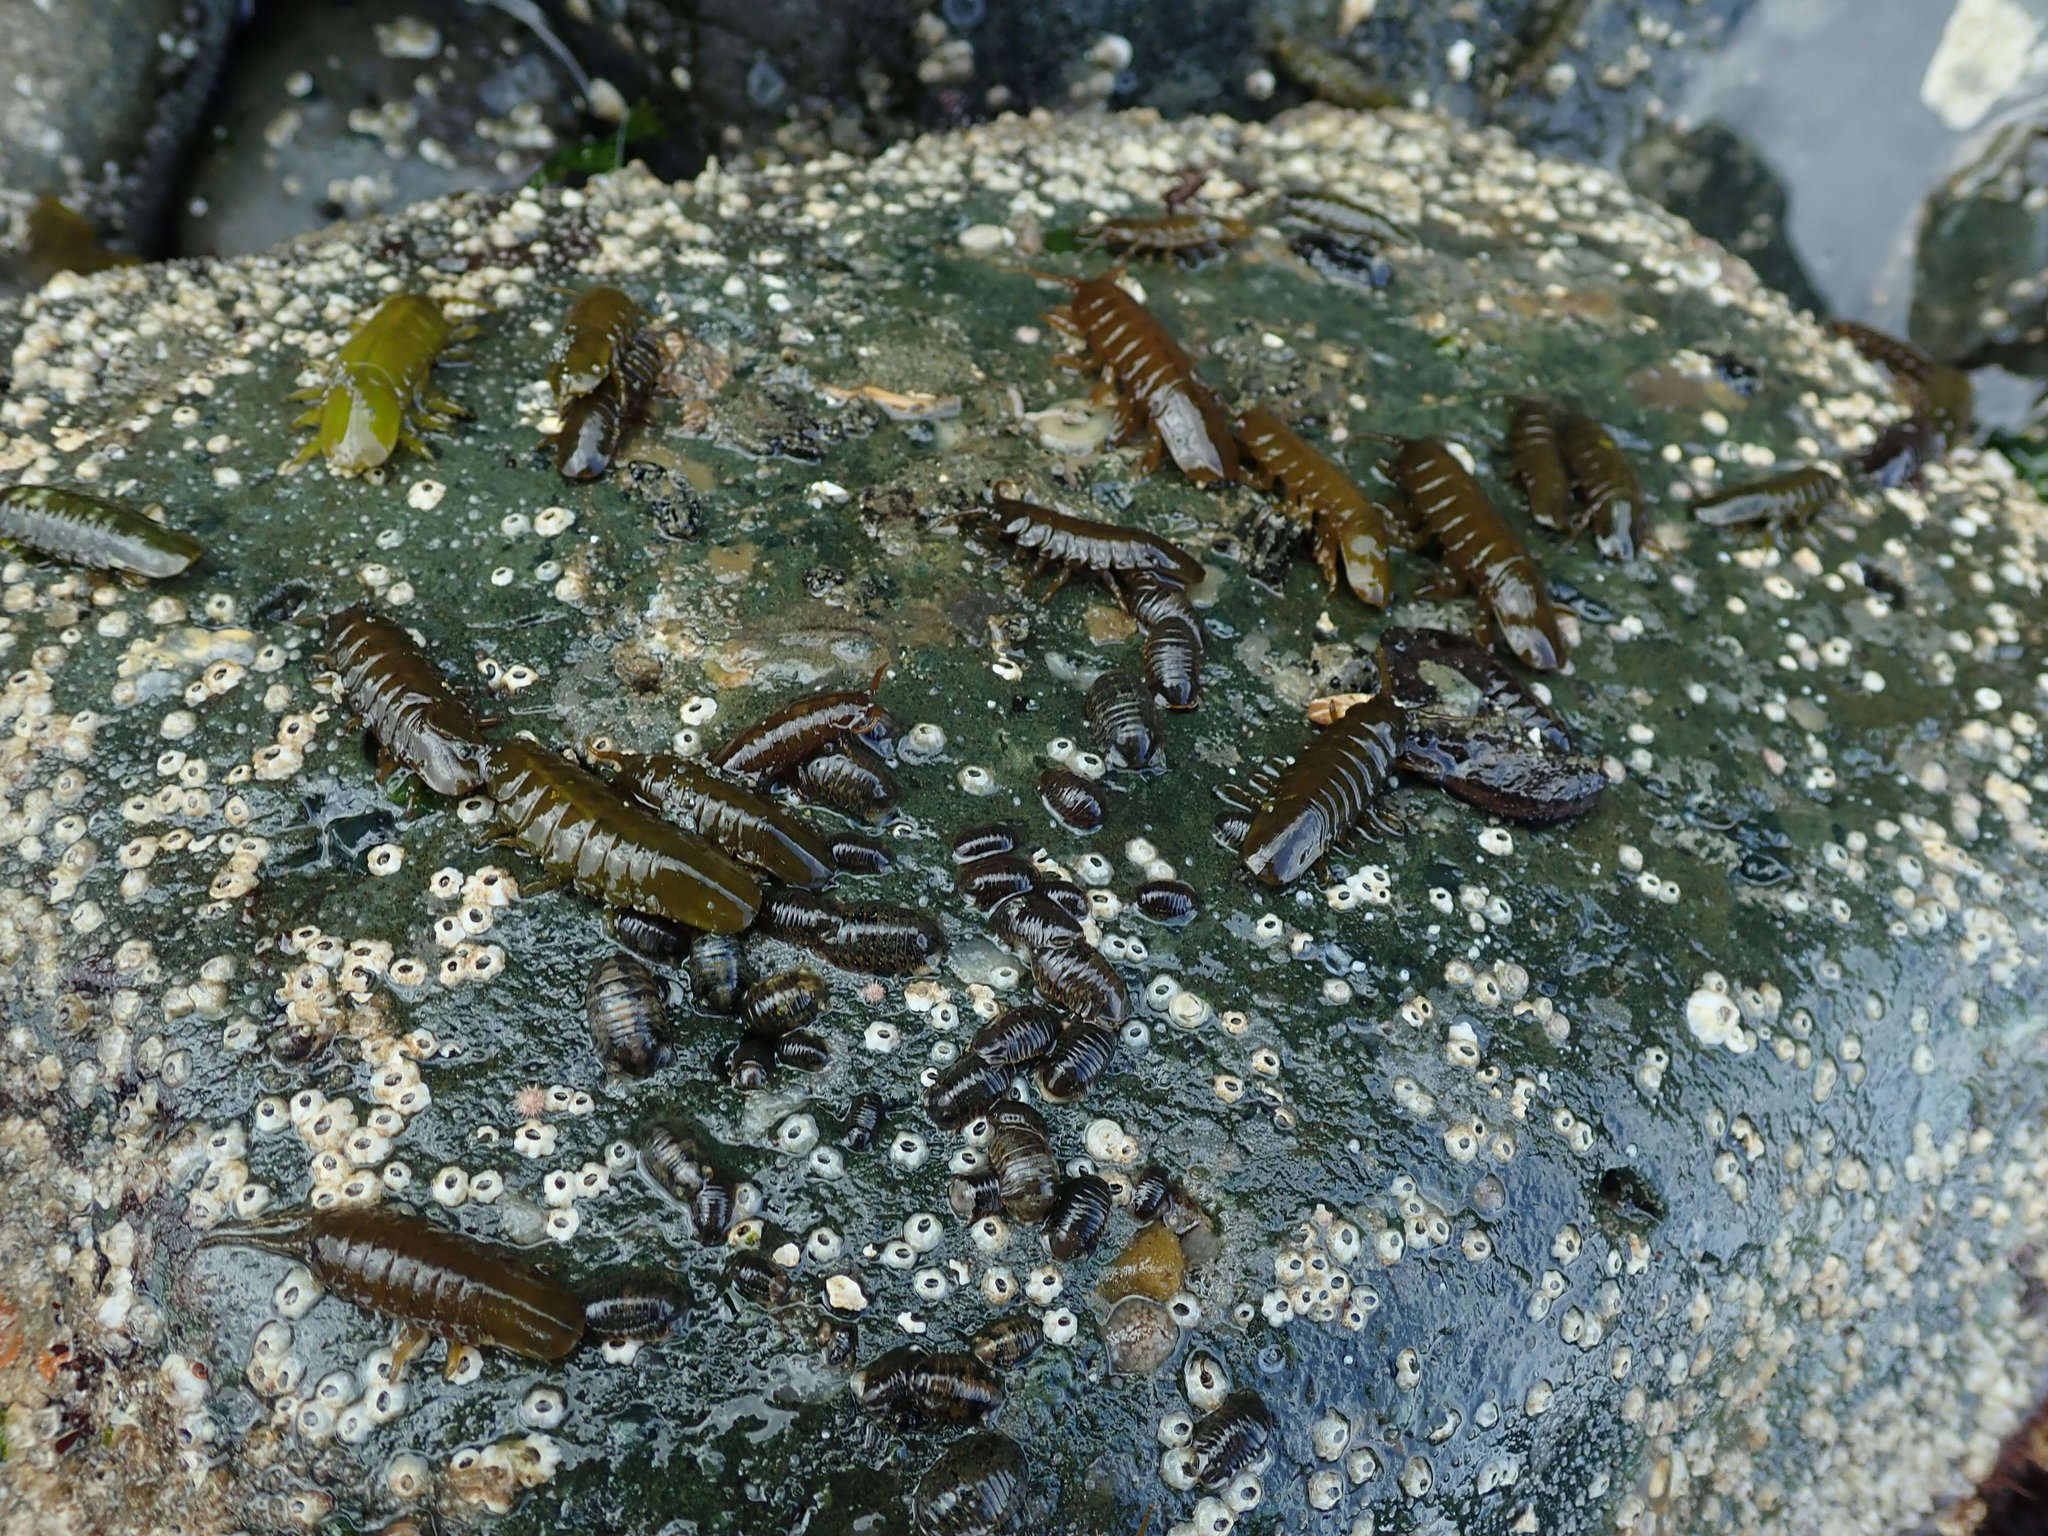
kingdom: Animalia
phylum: Arthropoda
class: Malacostraca
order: Isopoda
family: Idoteidae
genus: Pentidotea
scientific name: Pentidotea wosnesenskii
